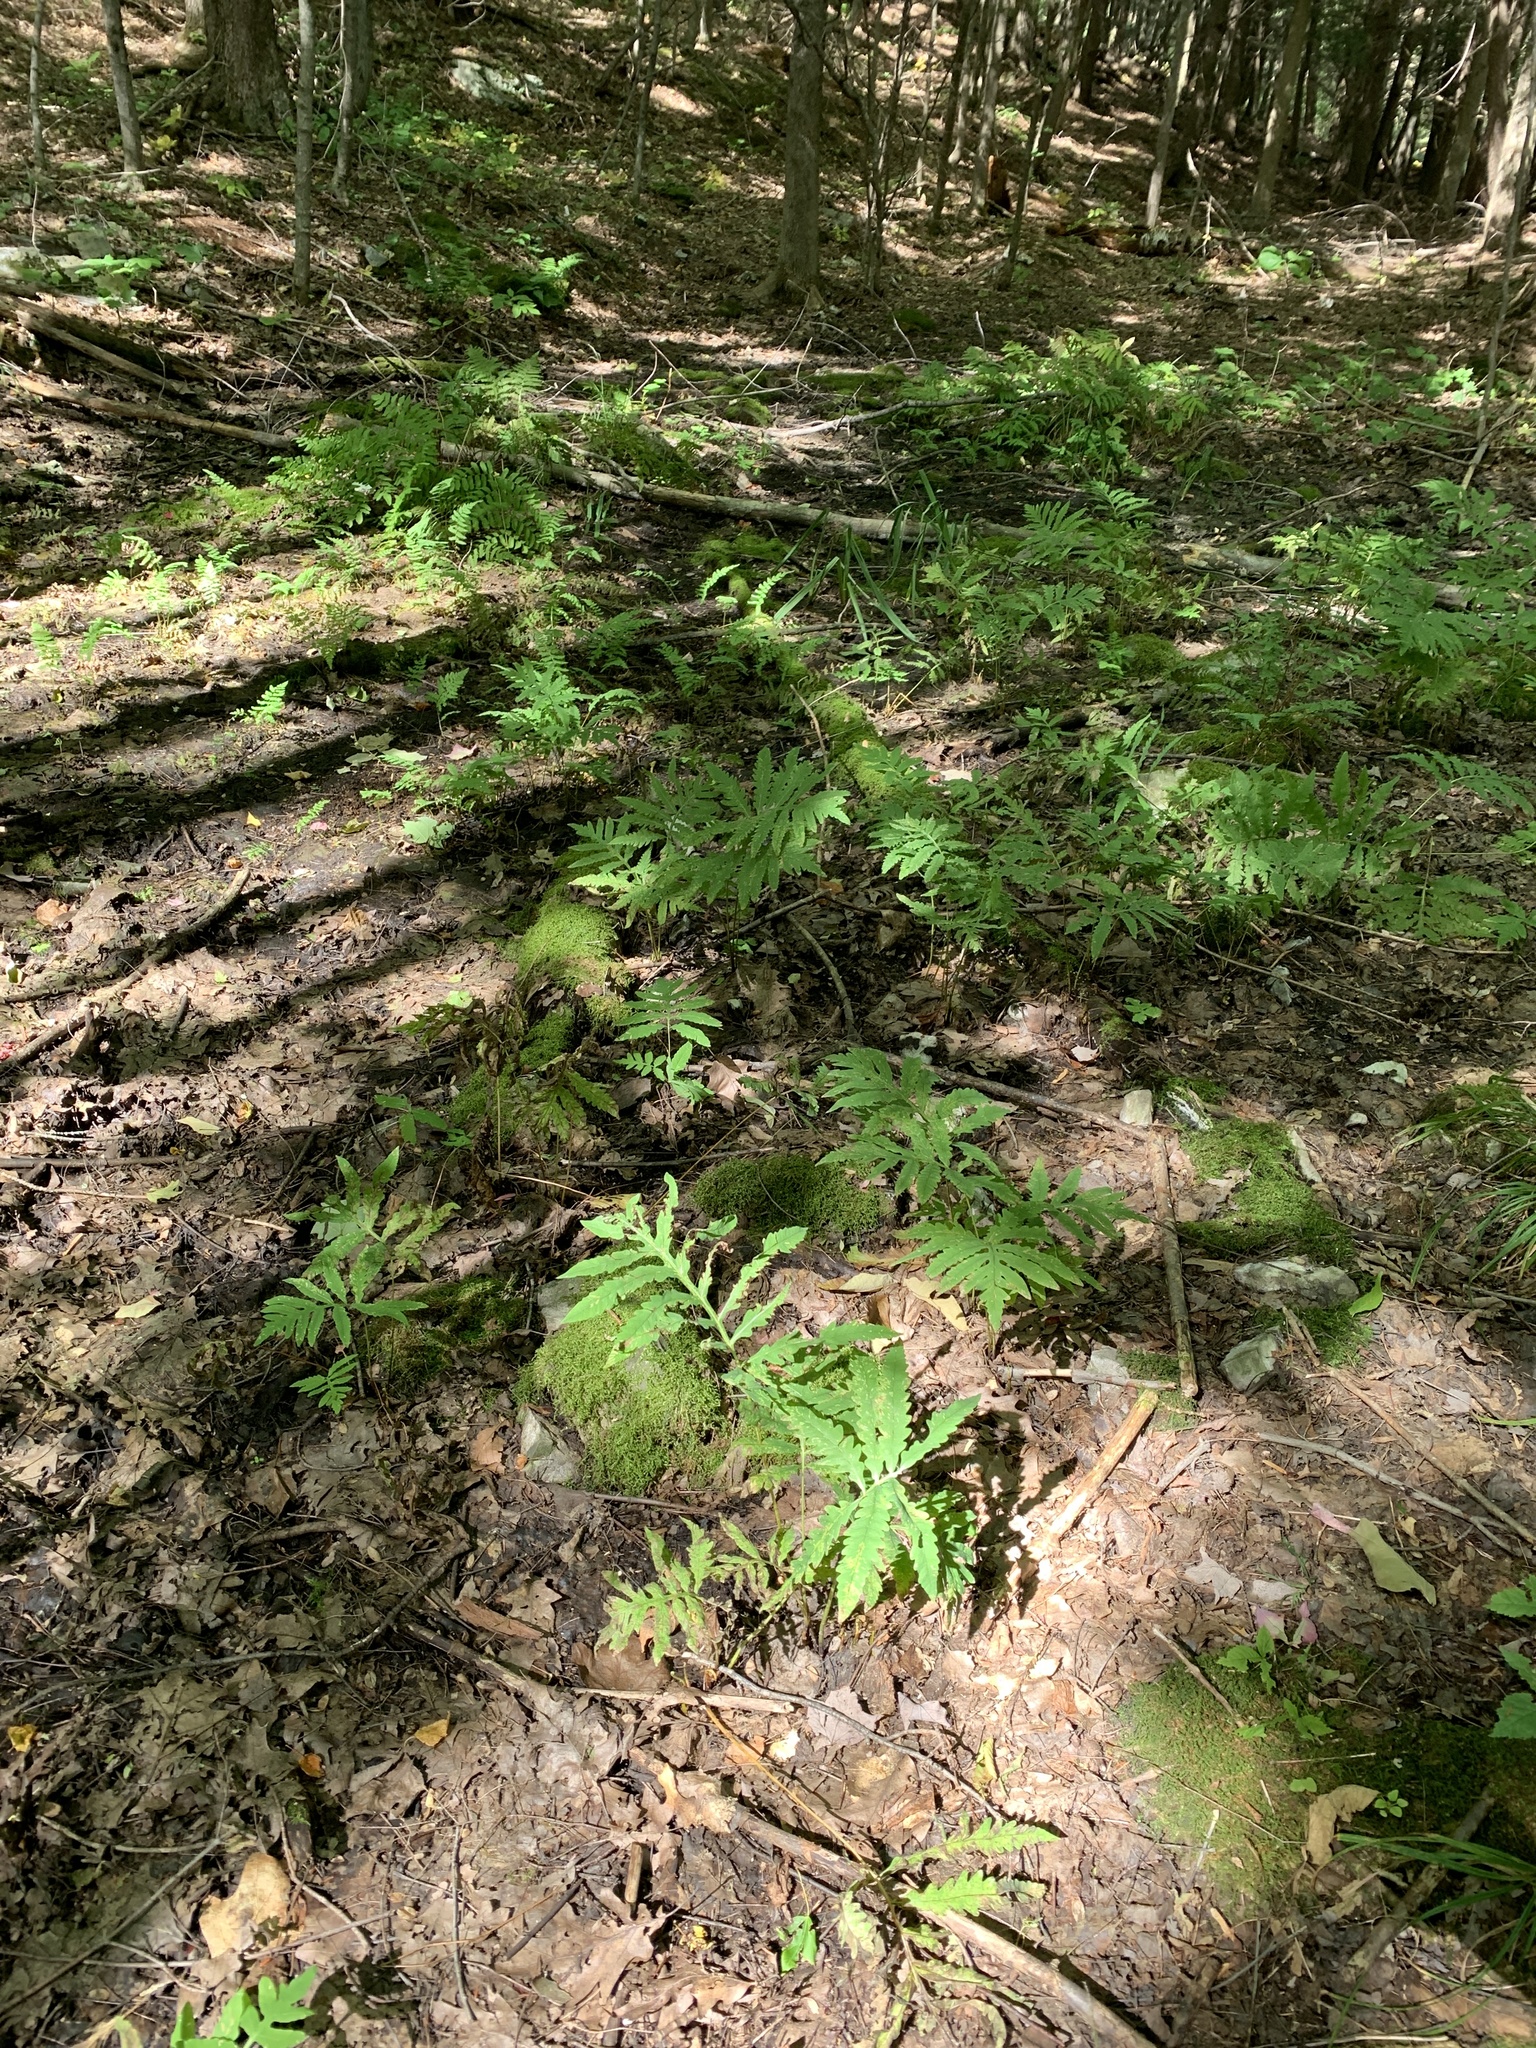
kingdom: Plantae
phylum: Tracheophyta
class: Polypodiopsida
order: Polypodiales
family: Onocleaceae
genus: Onoclea
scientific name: Onoclea sensibilis
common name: Sensitive fern
